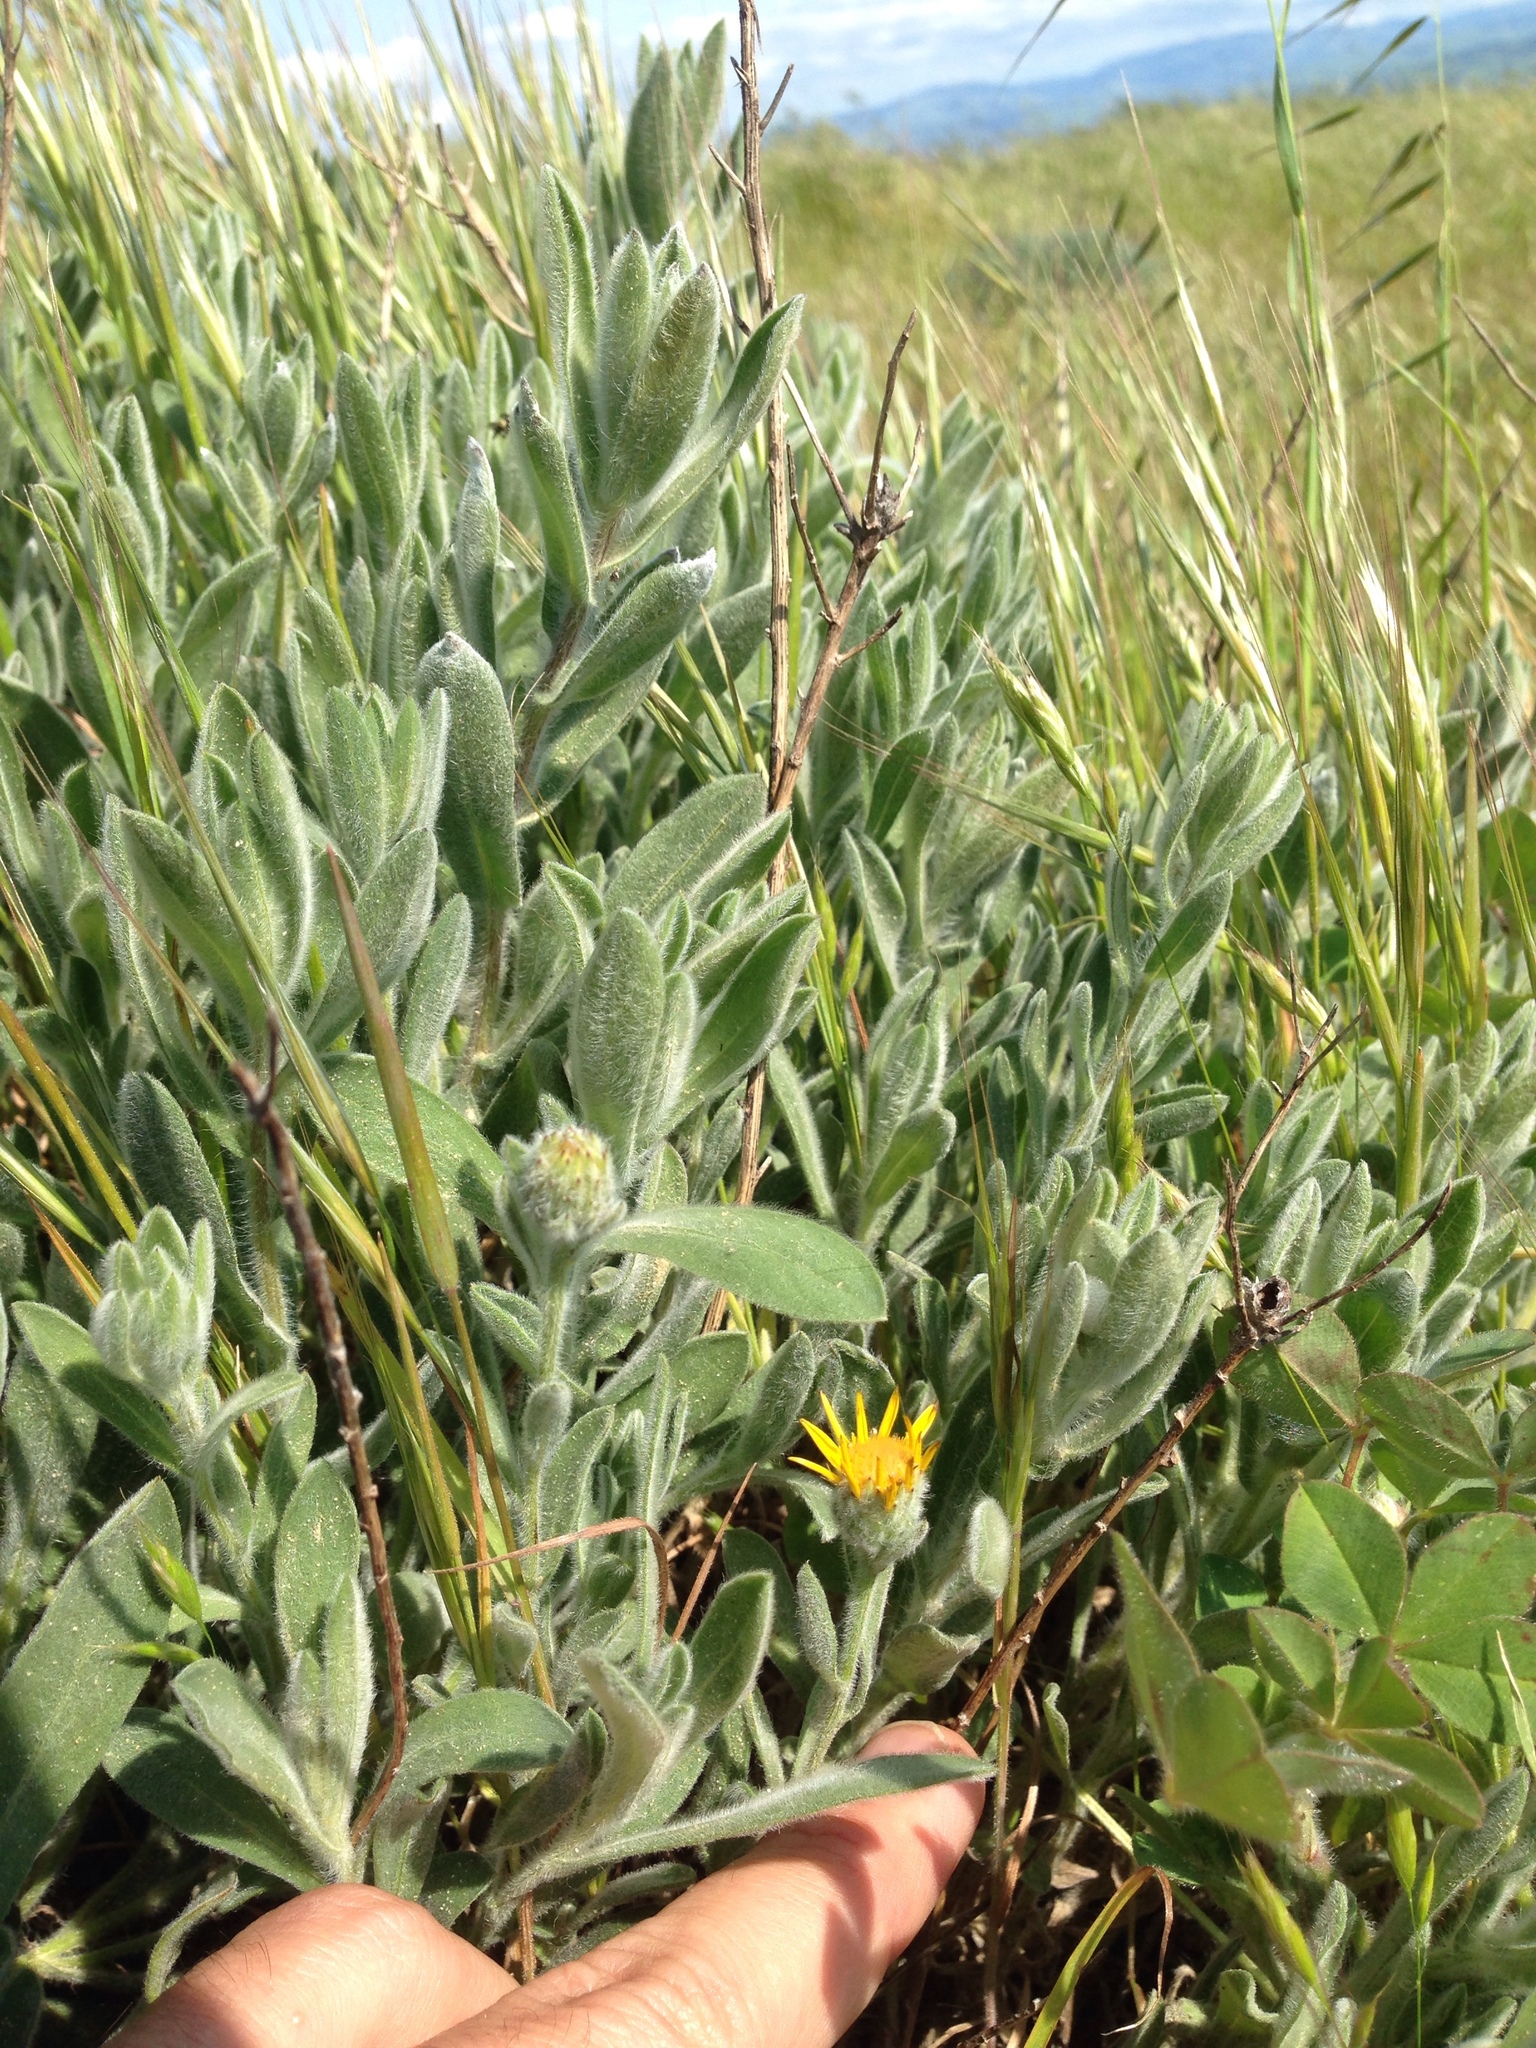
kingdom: Plantae
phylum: Tracheophyta
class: Magnoliopsida
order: Asterales
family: Asteraceae
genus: Heterotheca
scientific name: Heterotheca sessiliflora
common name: Sessile-flower golden-aster
